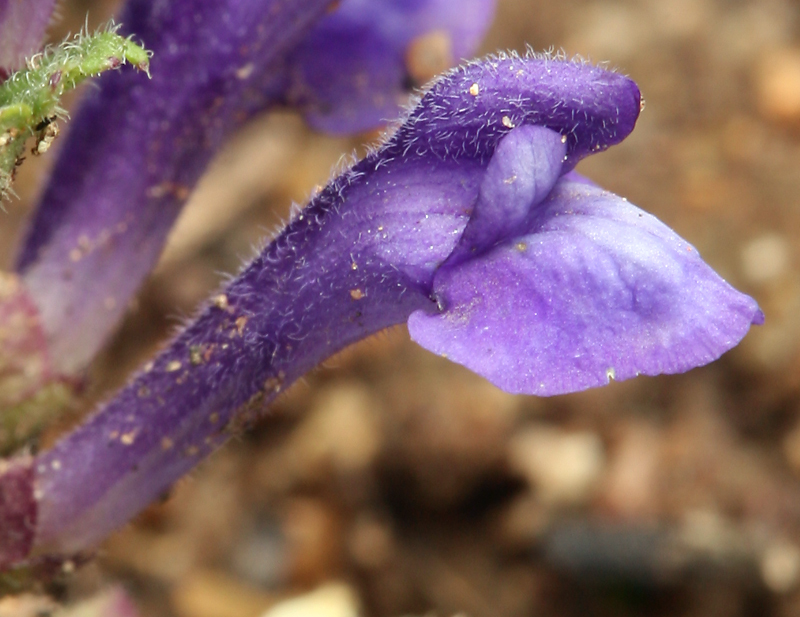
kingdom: Plantae
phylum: Tracheophyta
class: Magnoliopsida
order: Lamiales
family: Lamiaceae
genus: Scutellaria
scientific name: Scutellaria tuberosa
